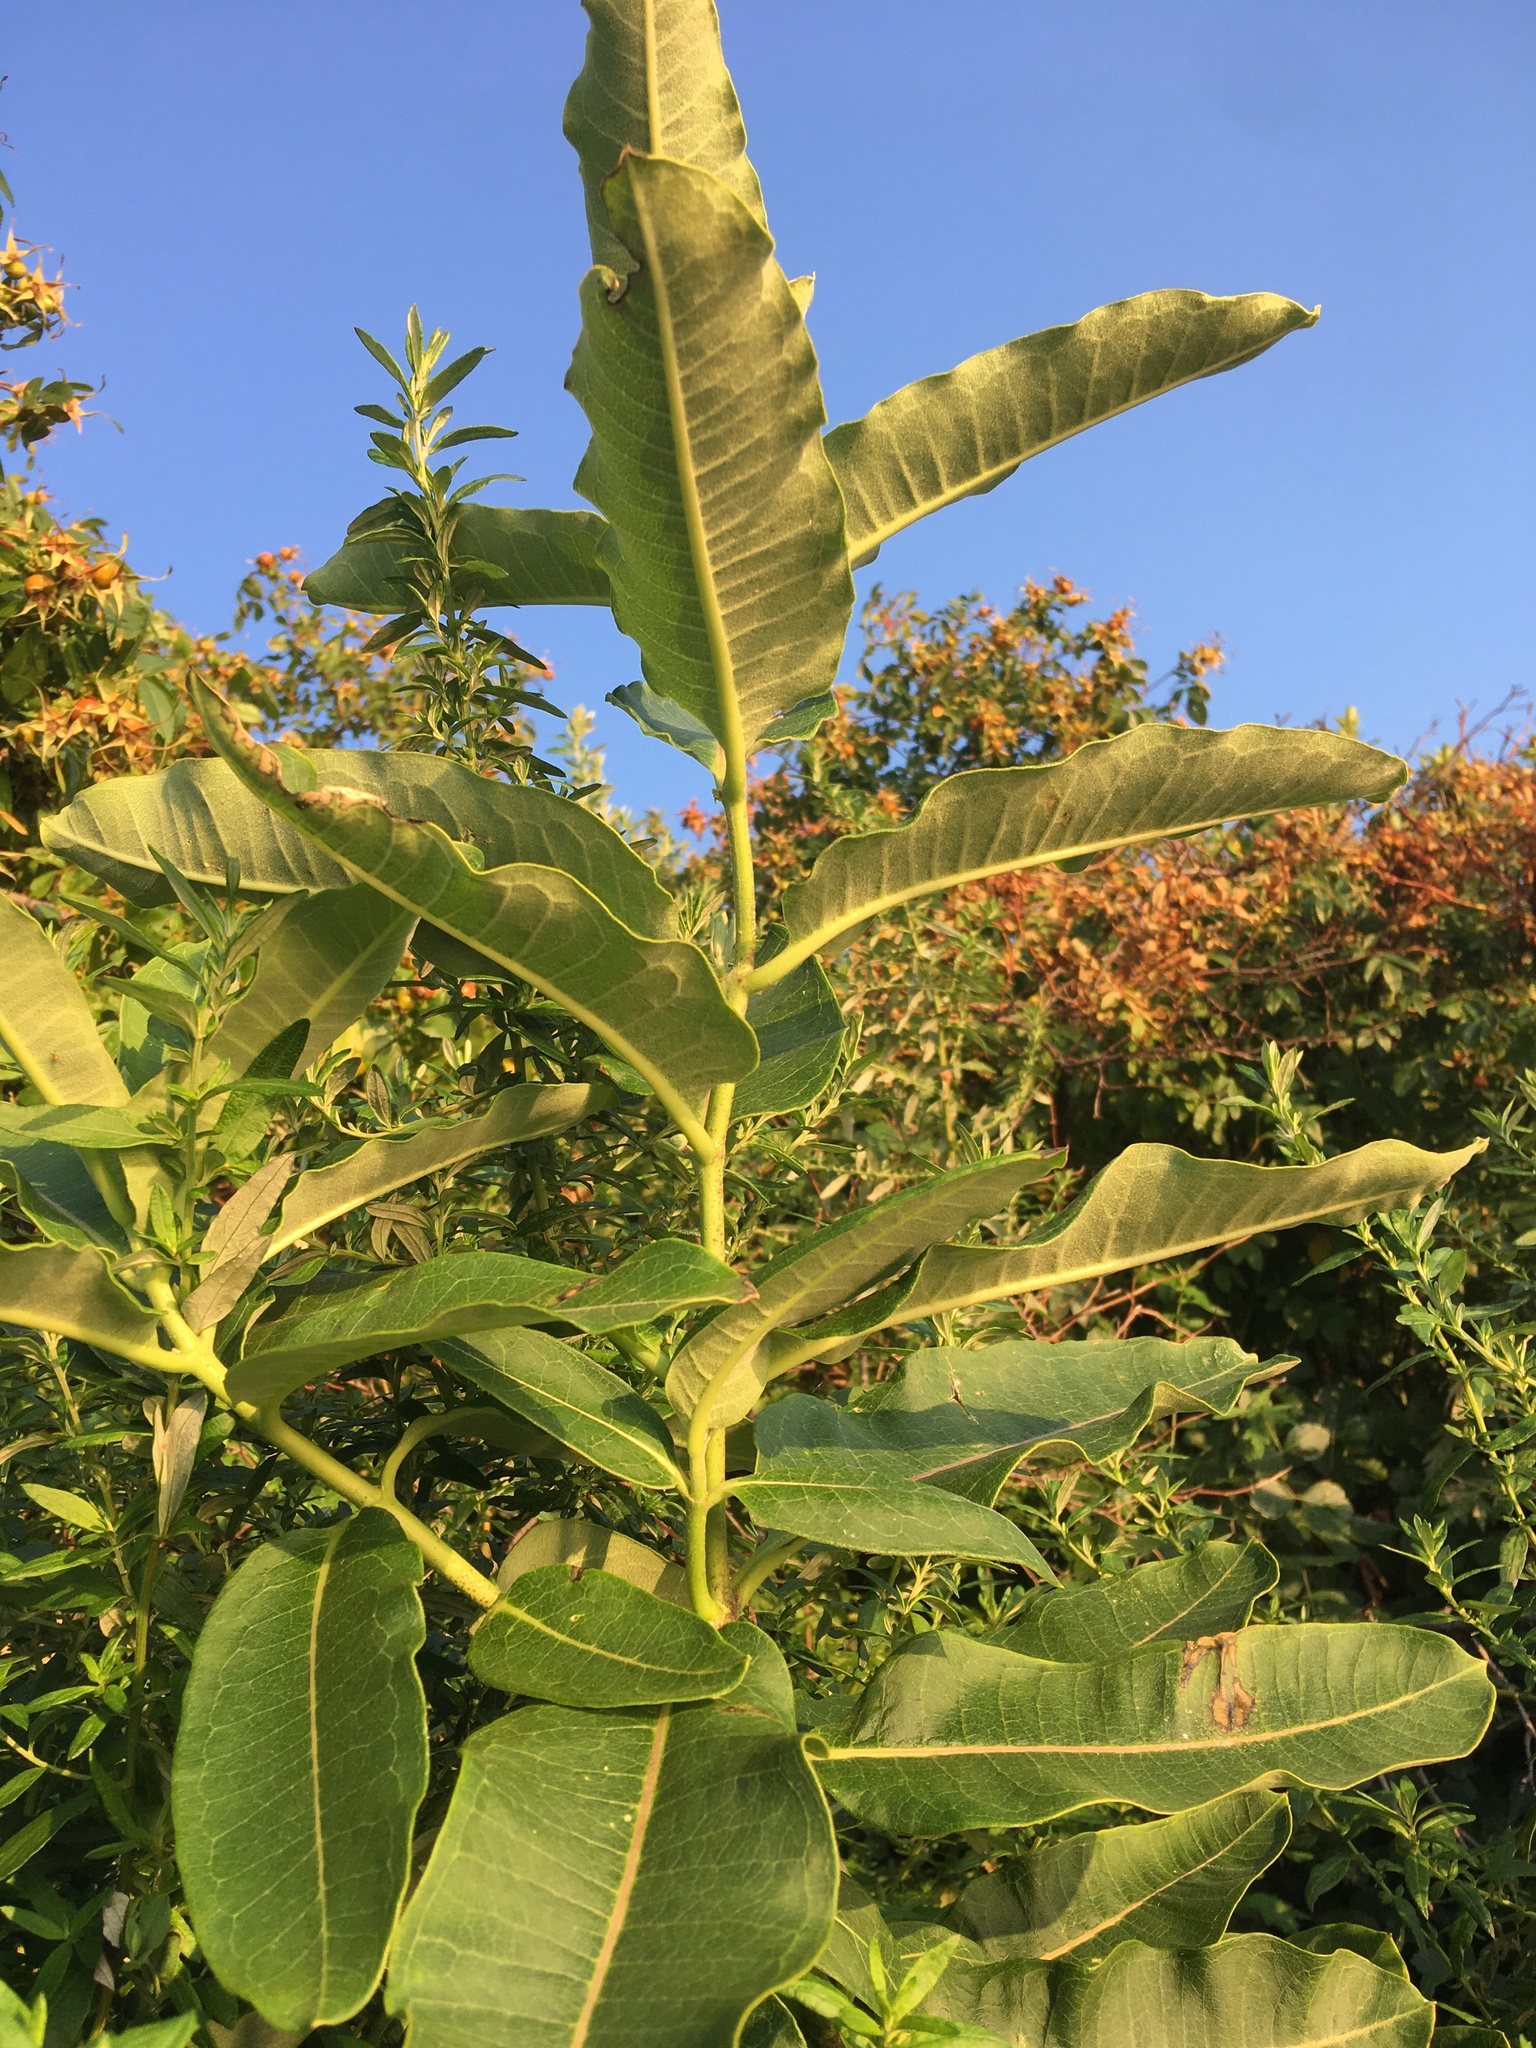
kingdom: Plantae
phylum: Tracheophyta
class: Magnoliopsida
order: Gentianales
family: Apocynaceae
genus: Asclepias
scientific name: Asclepias syriaca
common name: Common milkweed
